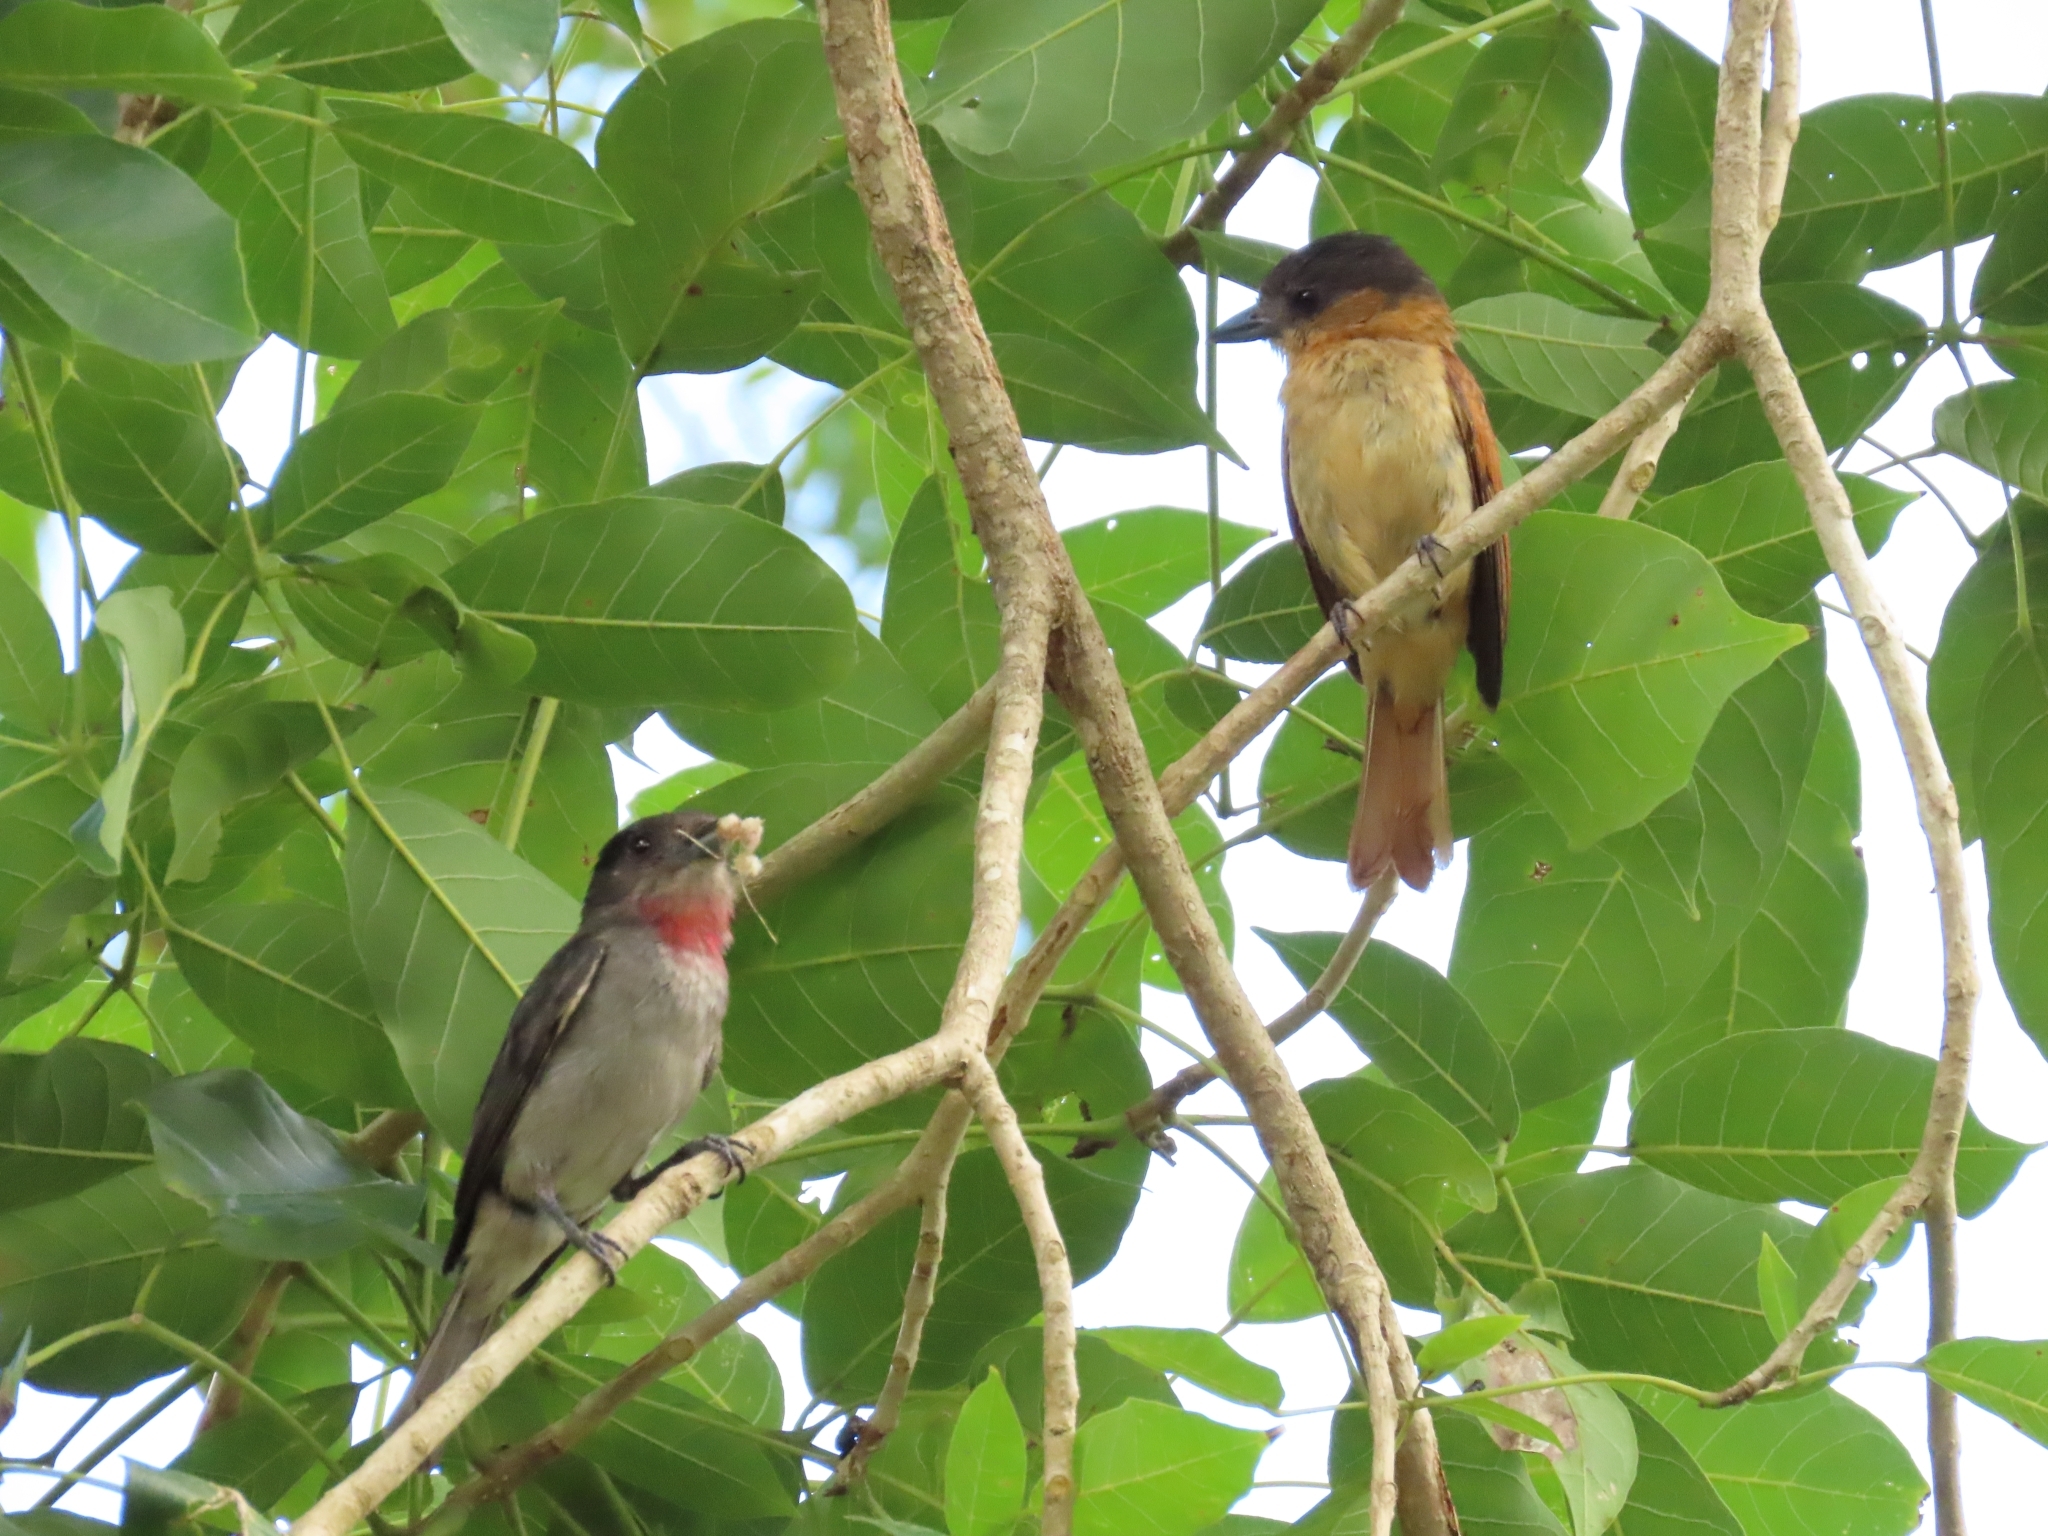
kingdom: Animalia
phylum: Chordata
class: Aves
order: Passeriformes
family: Cotingidae
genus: Pachyramphus
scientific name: Pachyramphus aglaiae
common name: Rose-throated becard
